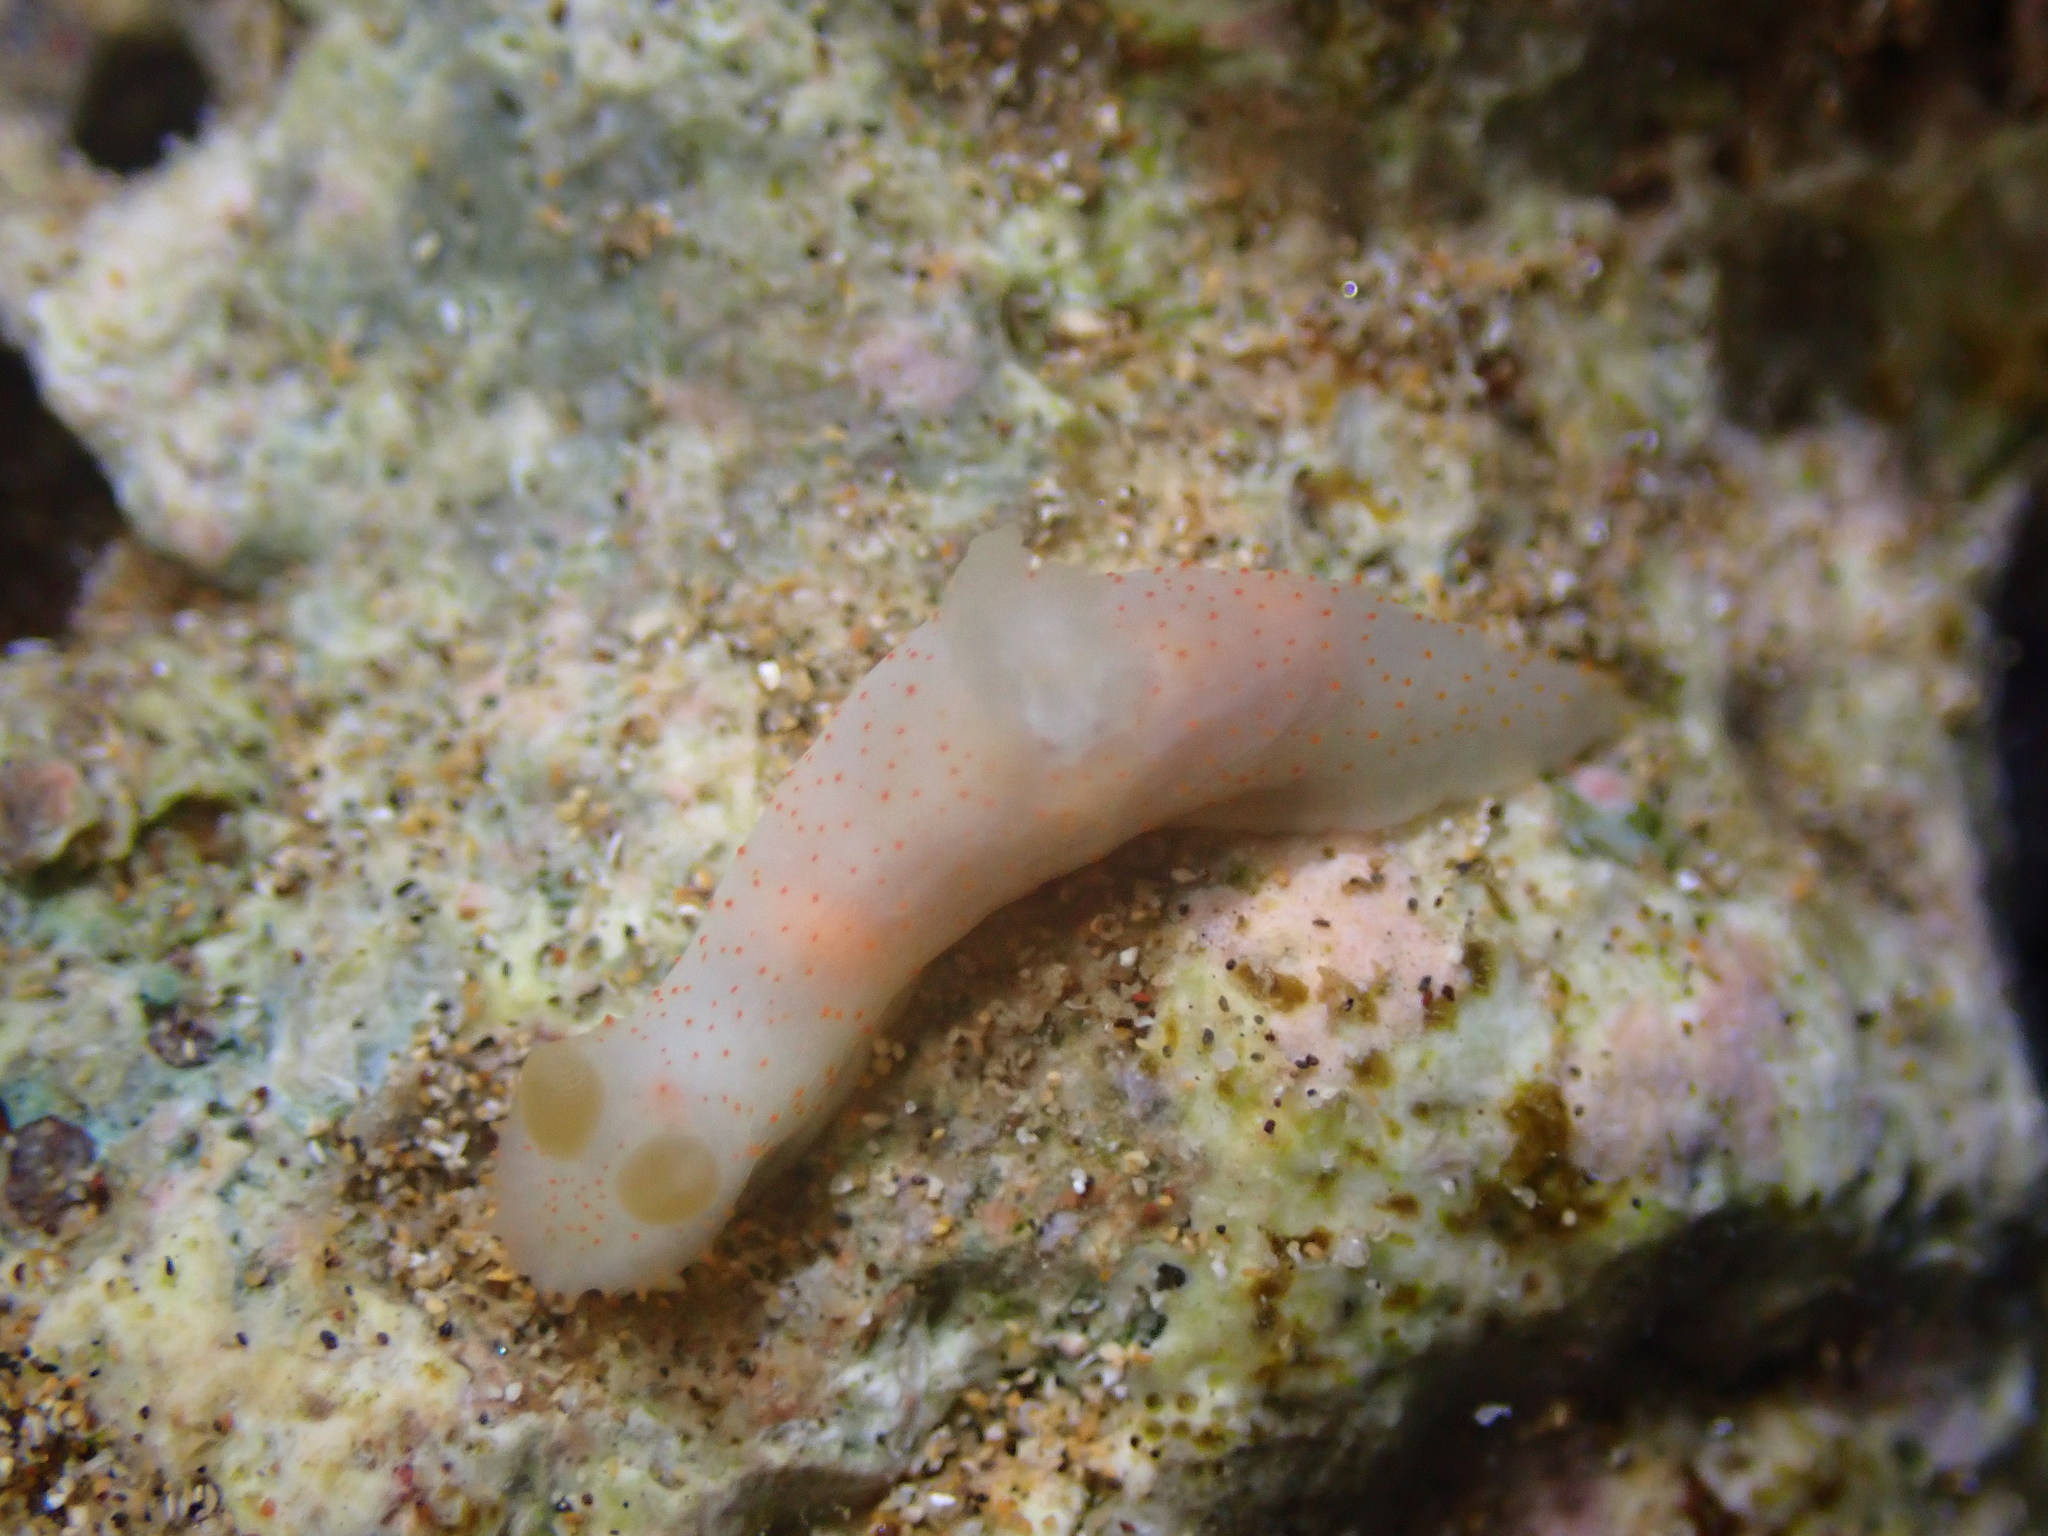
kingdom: Animalia
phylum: Mollusca
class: Gastropoda
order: Nudibranchia
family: Polyceridae
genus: Gymnodoris
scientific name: Gymnodoris citrina
